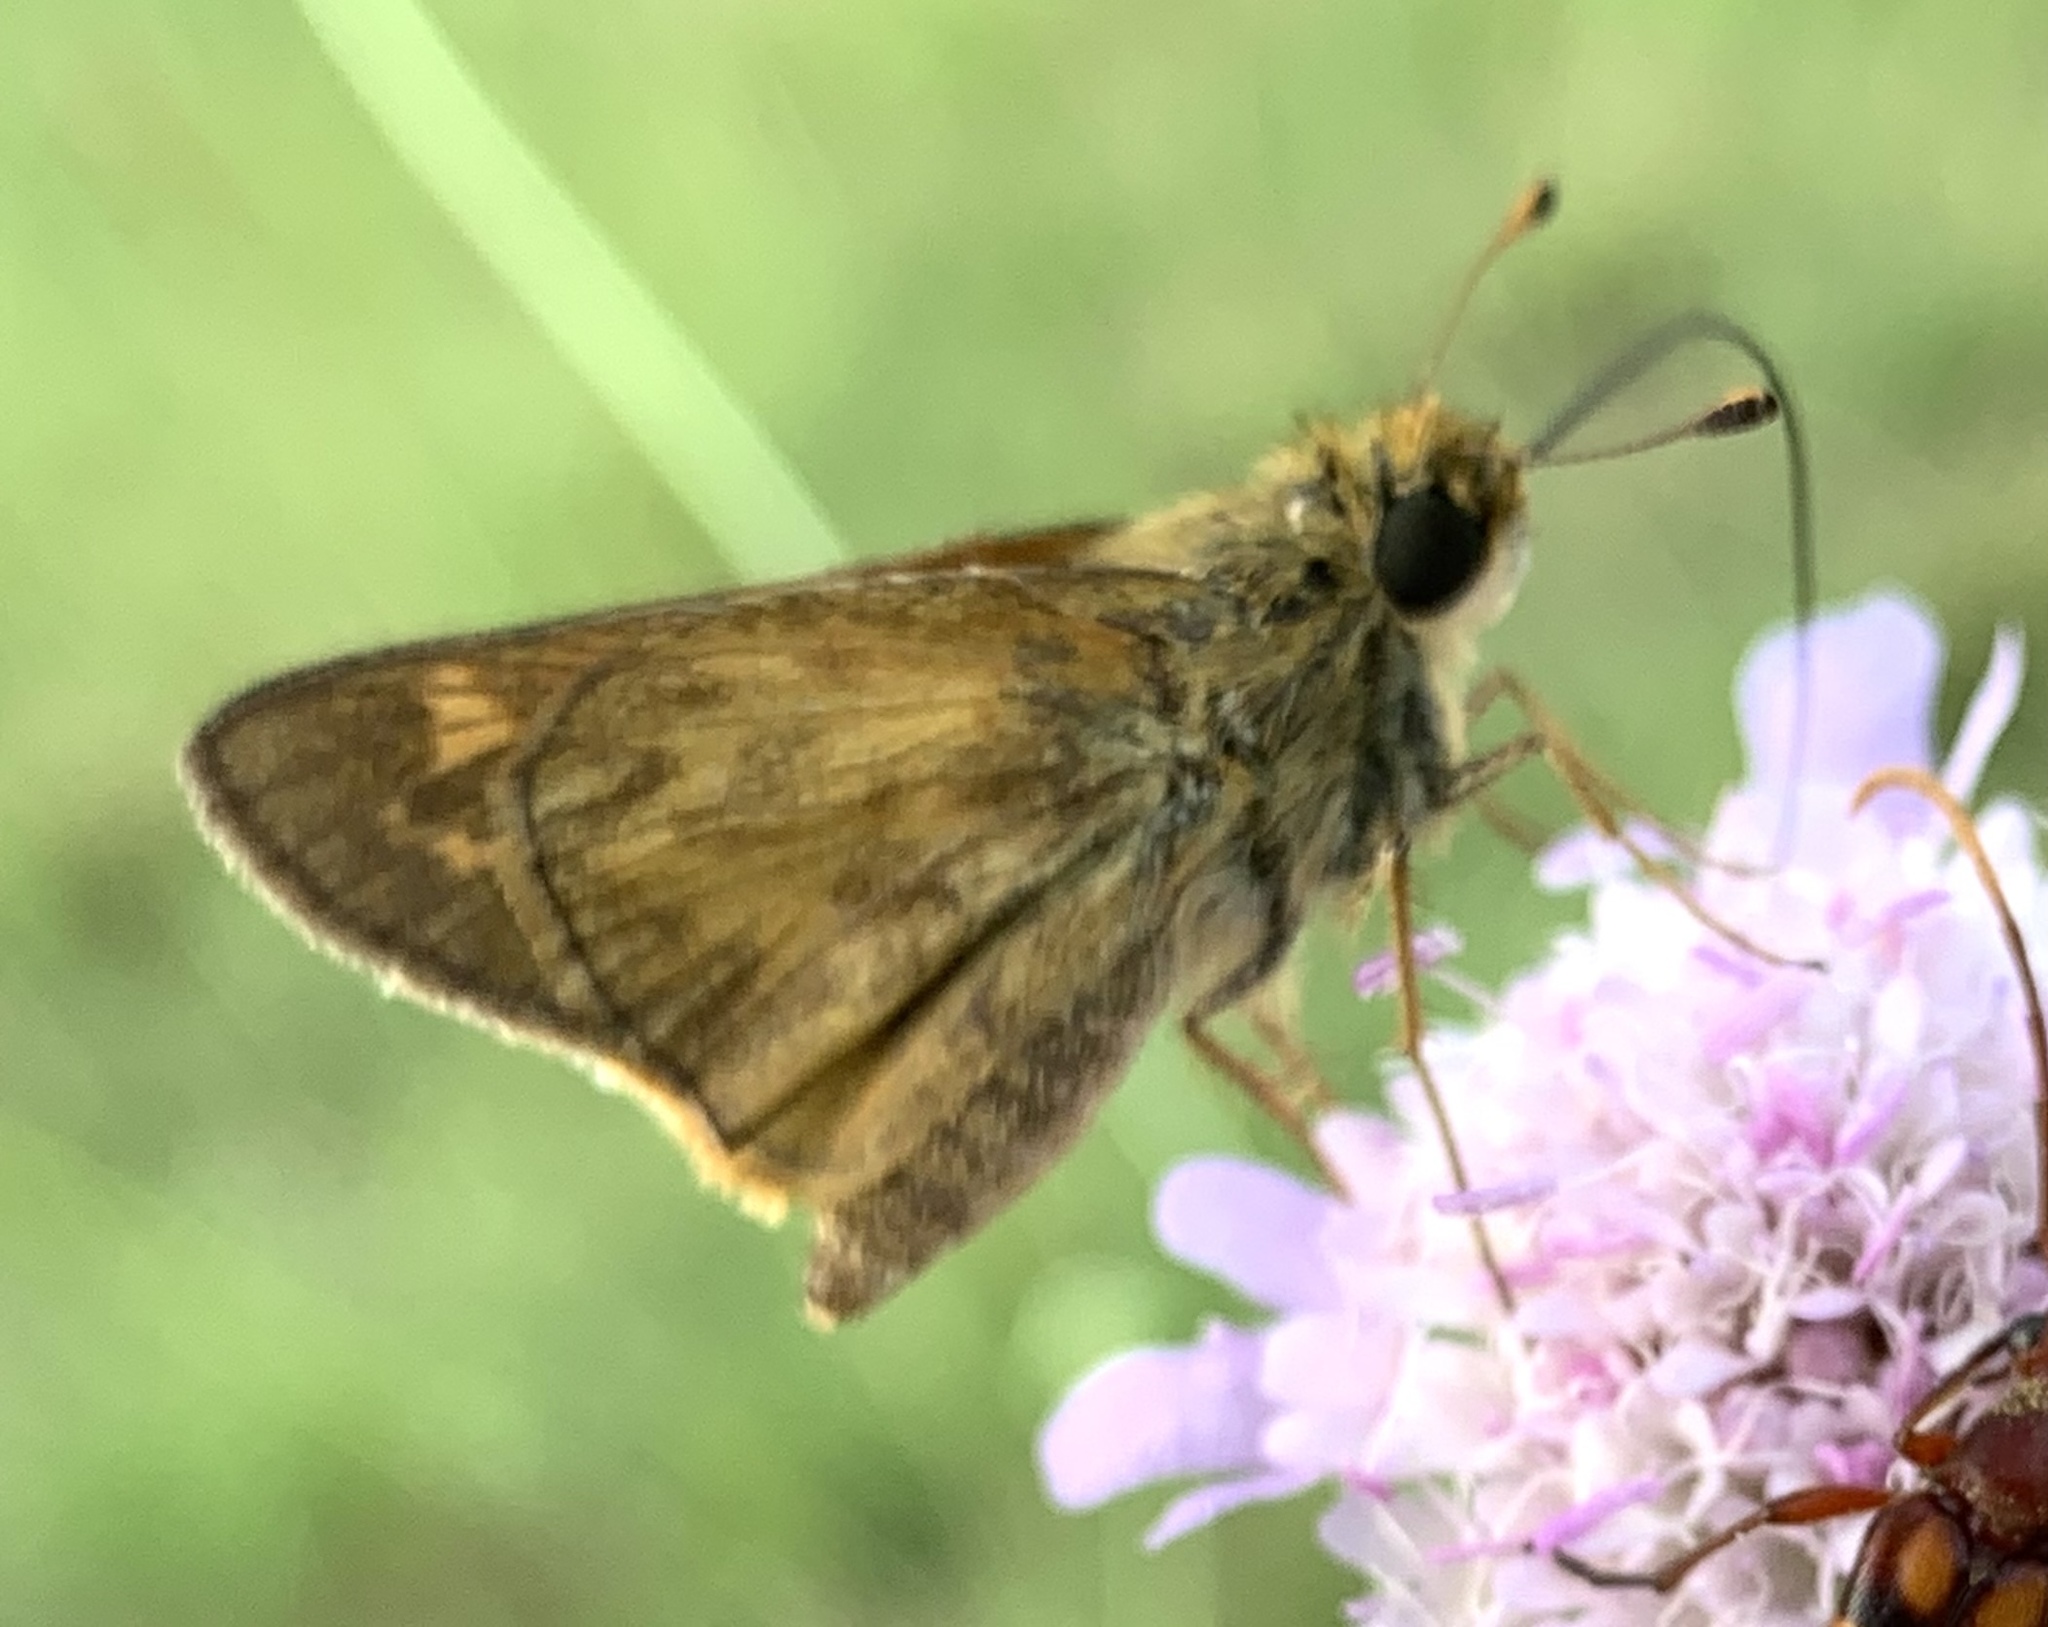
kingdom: Animalia
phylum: Arthropoda
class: Insecta
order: Lepidoptera
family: Hesperiidae
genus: Atalopedes
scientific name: Atalopedes
